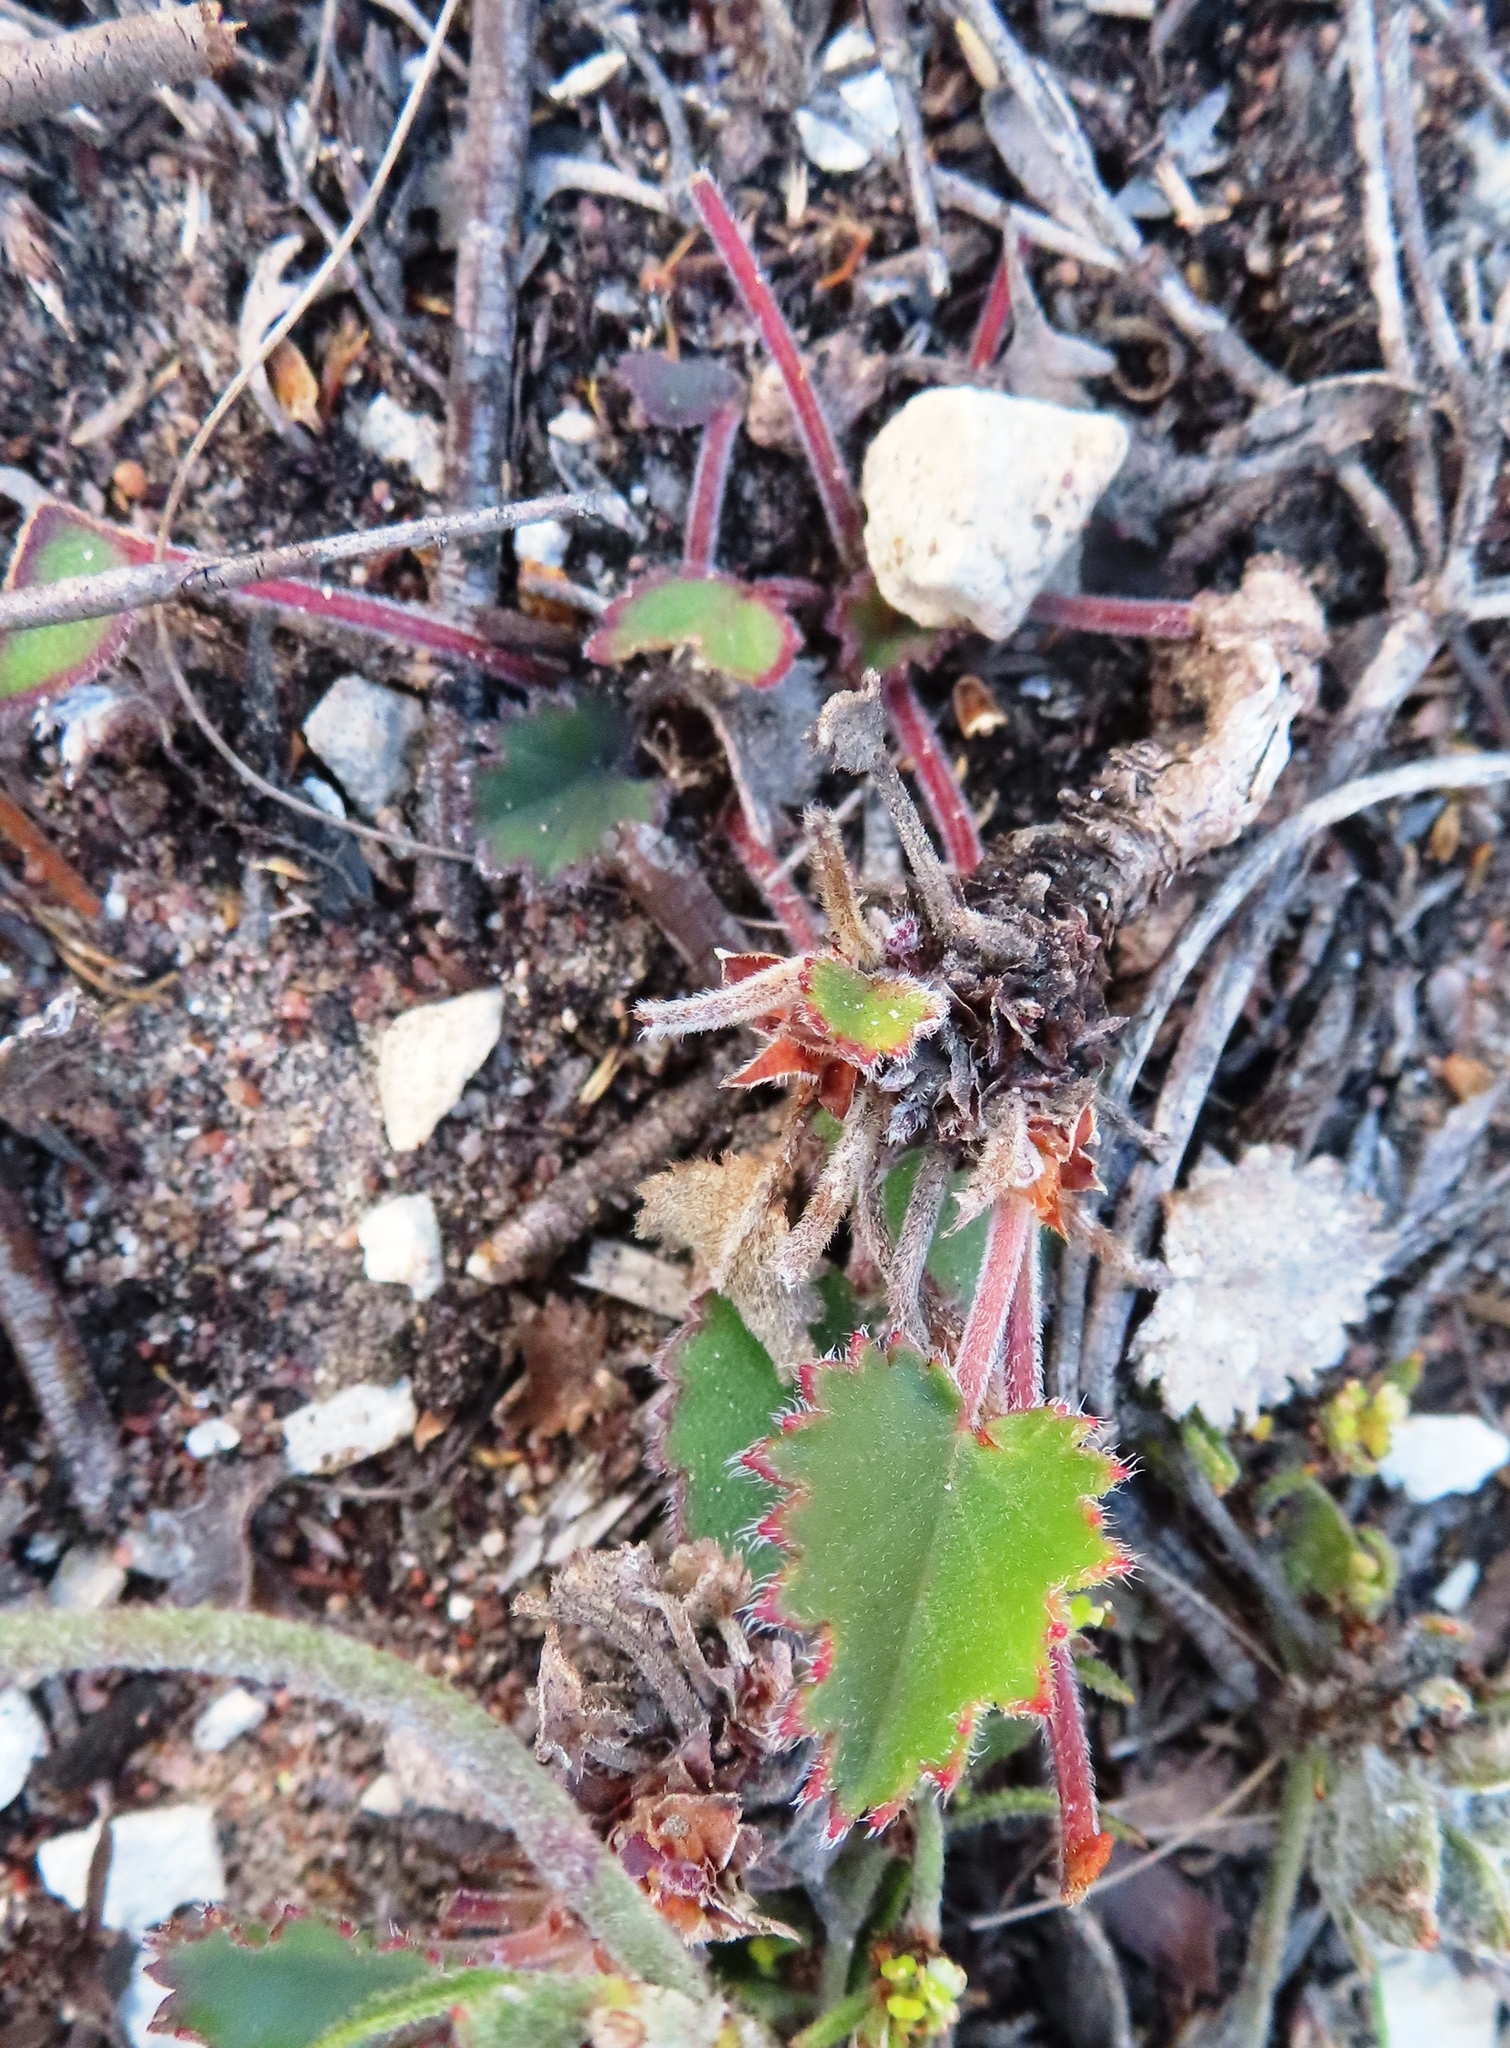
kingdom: Plantae
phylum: Tracheophyta
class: Magnoliopsida
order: Geraniales
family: Geraniaceae
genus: Pelargonium
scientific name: Pelargonium elegans
